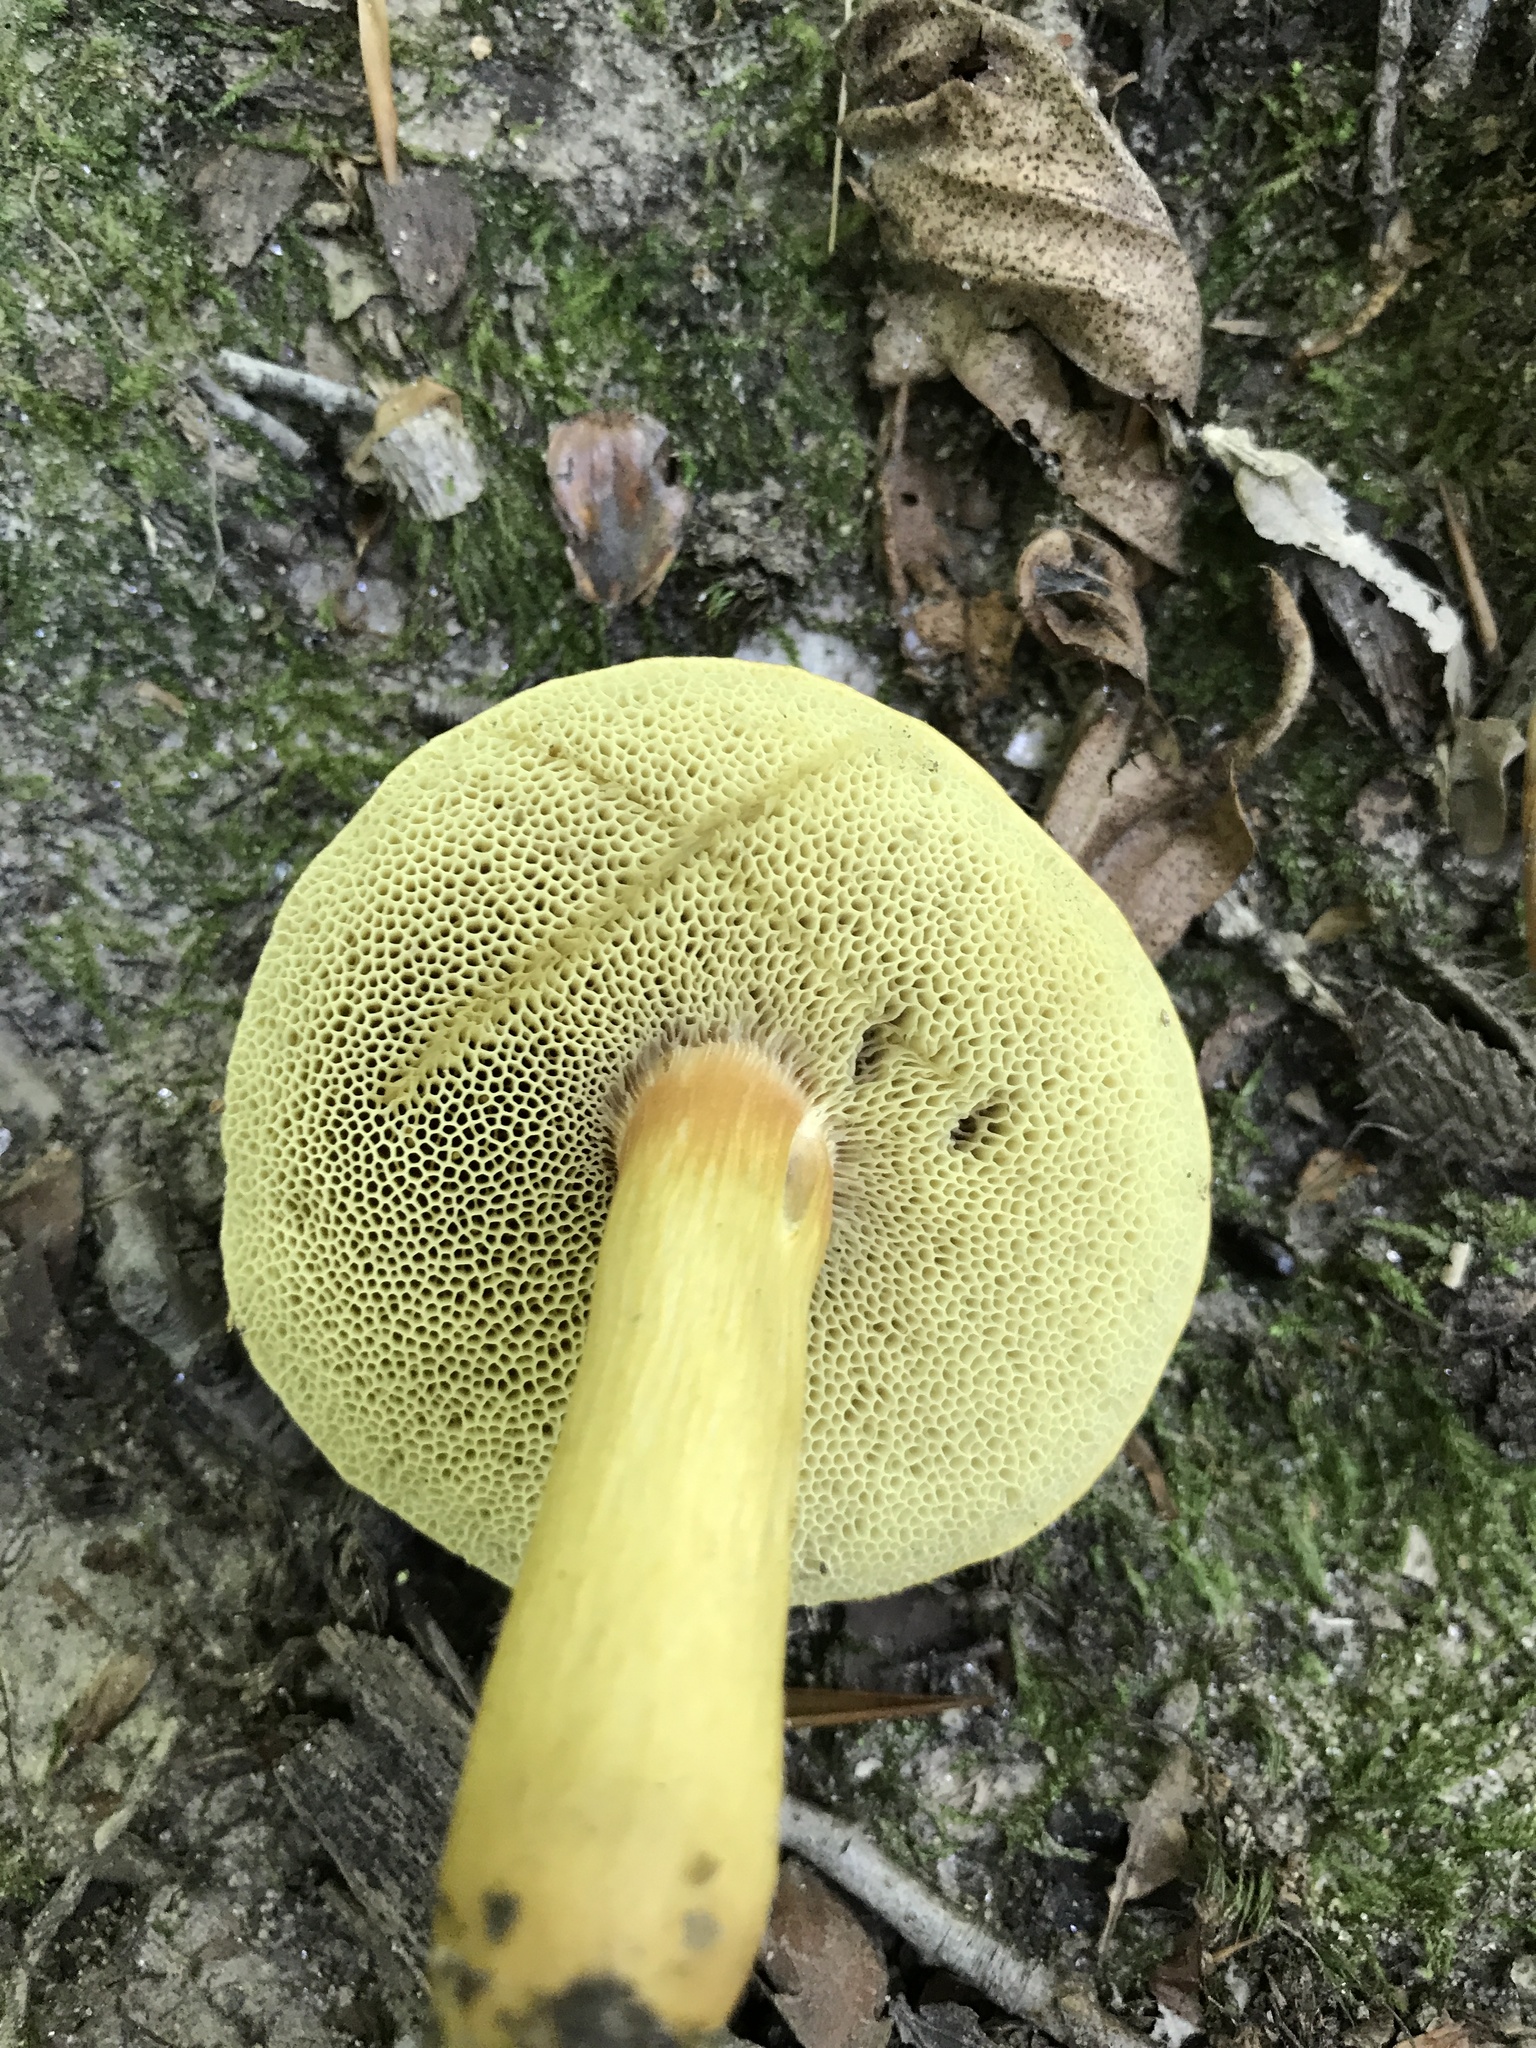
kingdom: Fungi
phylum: Basidiomycota
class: Agaricomycetes
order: Boletales
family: Boletaceae
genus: Aureoboletus
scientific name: Aureoboletus roxanae
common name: Roxane's bolete
